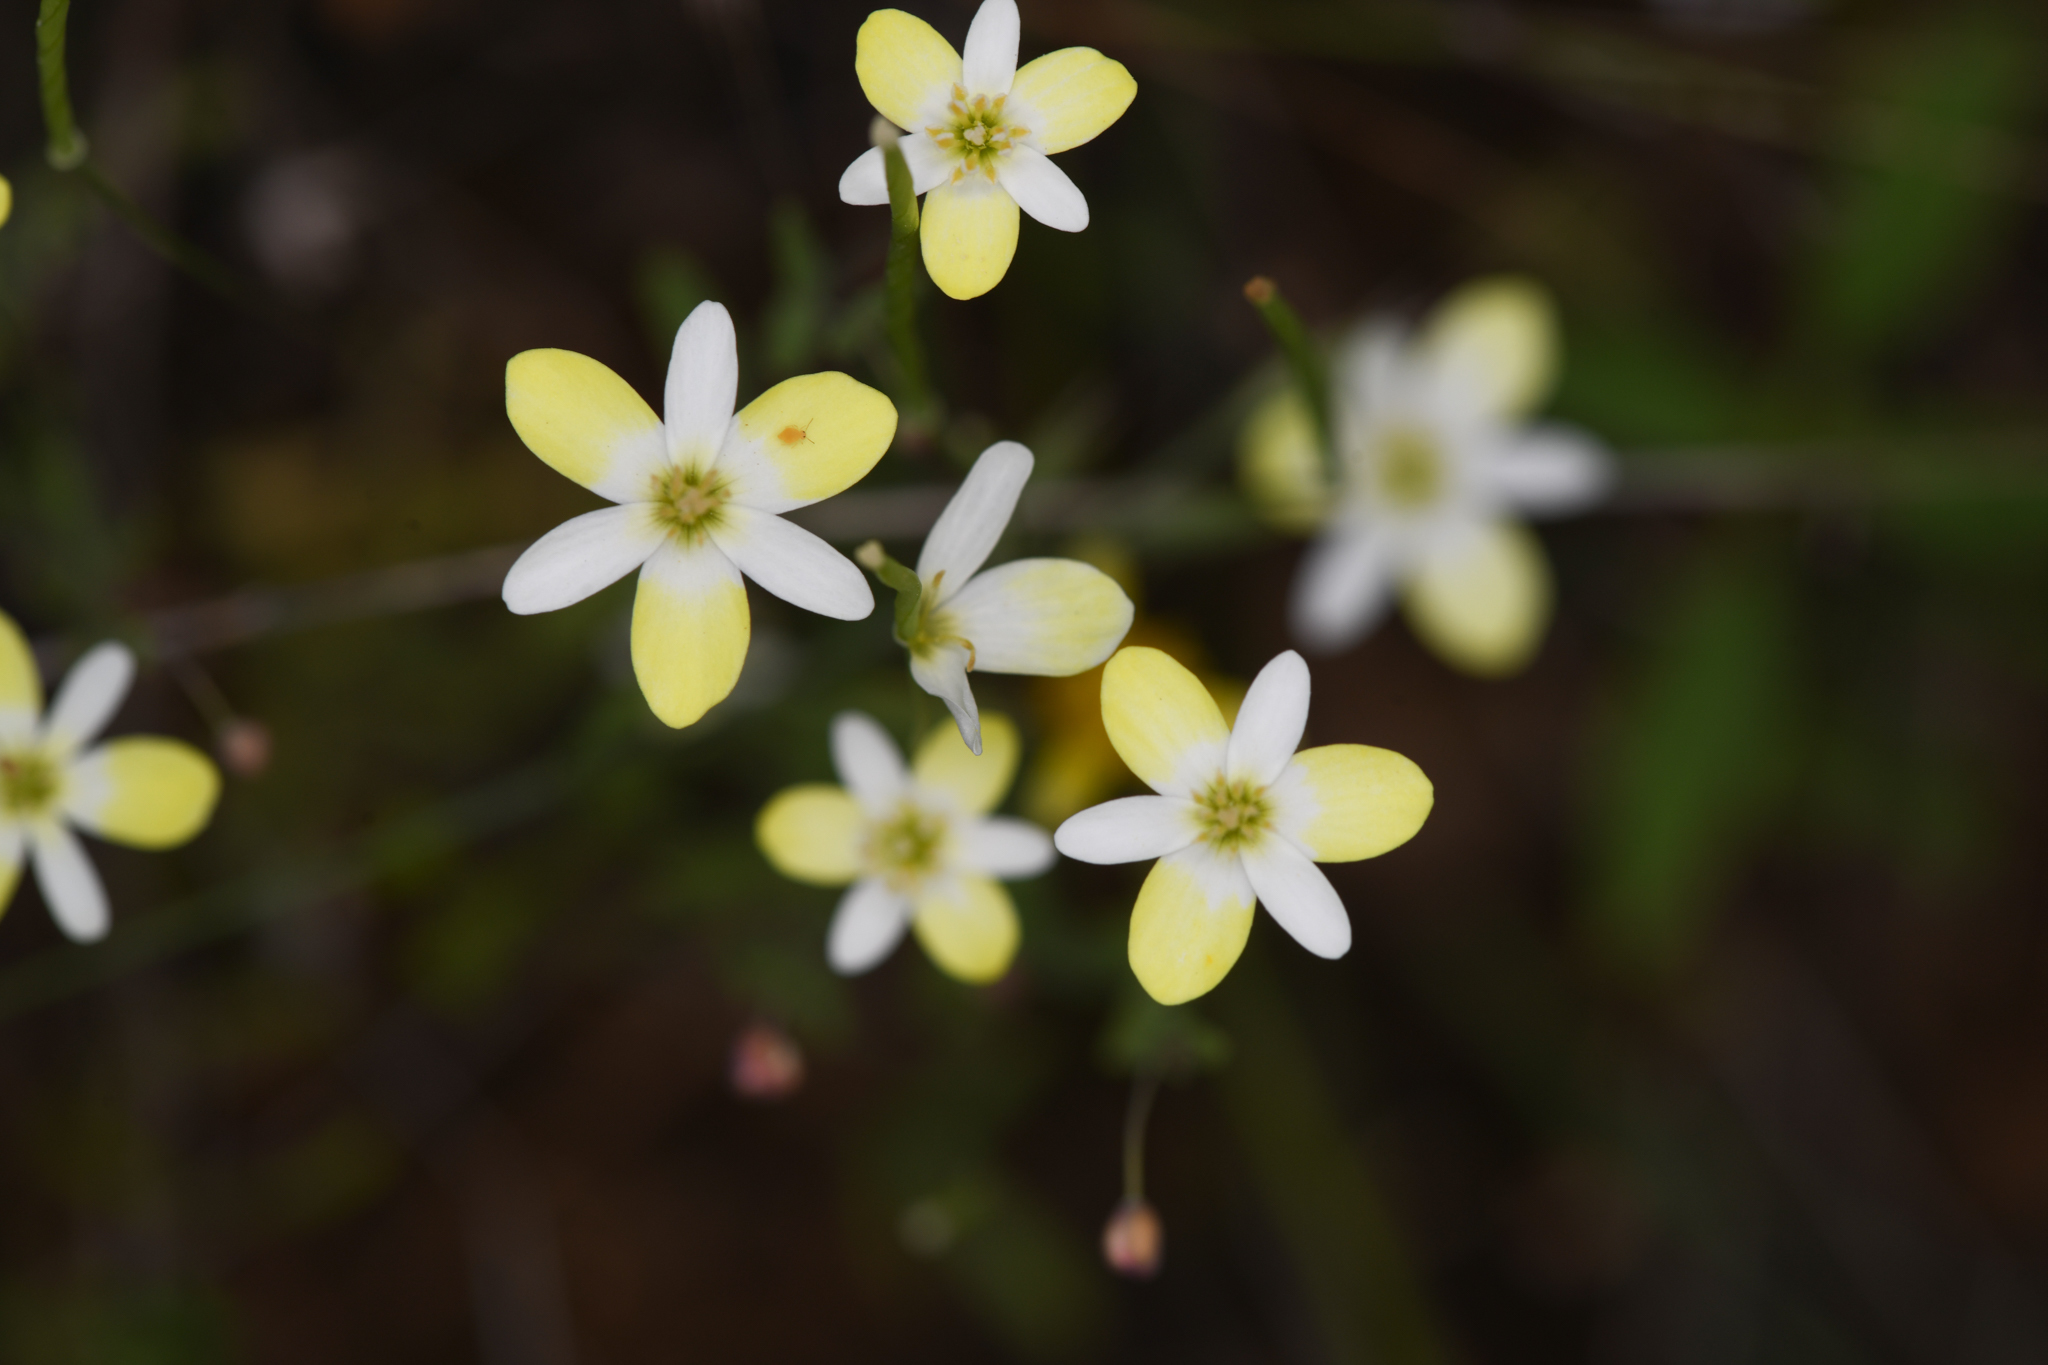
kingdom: Plantae
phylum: Tracheophyta
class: Magnoliopsida
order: Ranunculales
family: Papaveraceae
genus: Meconella
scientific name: Meconella californica
